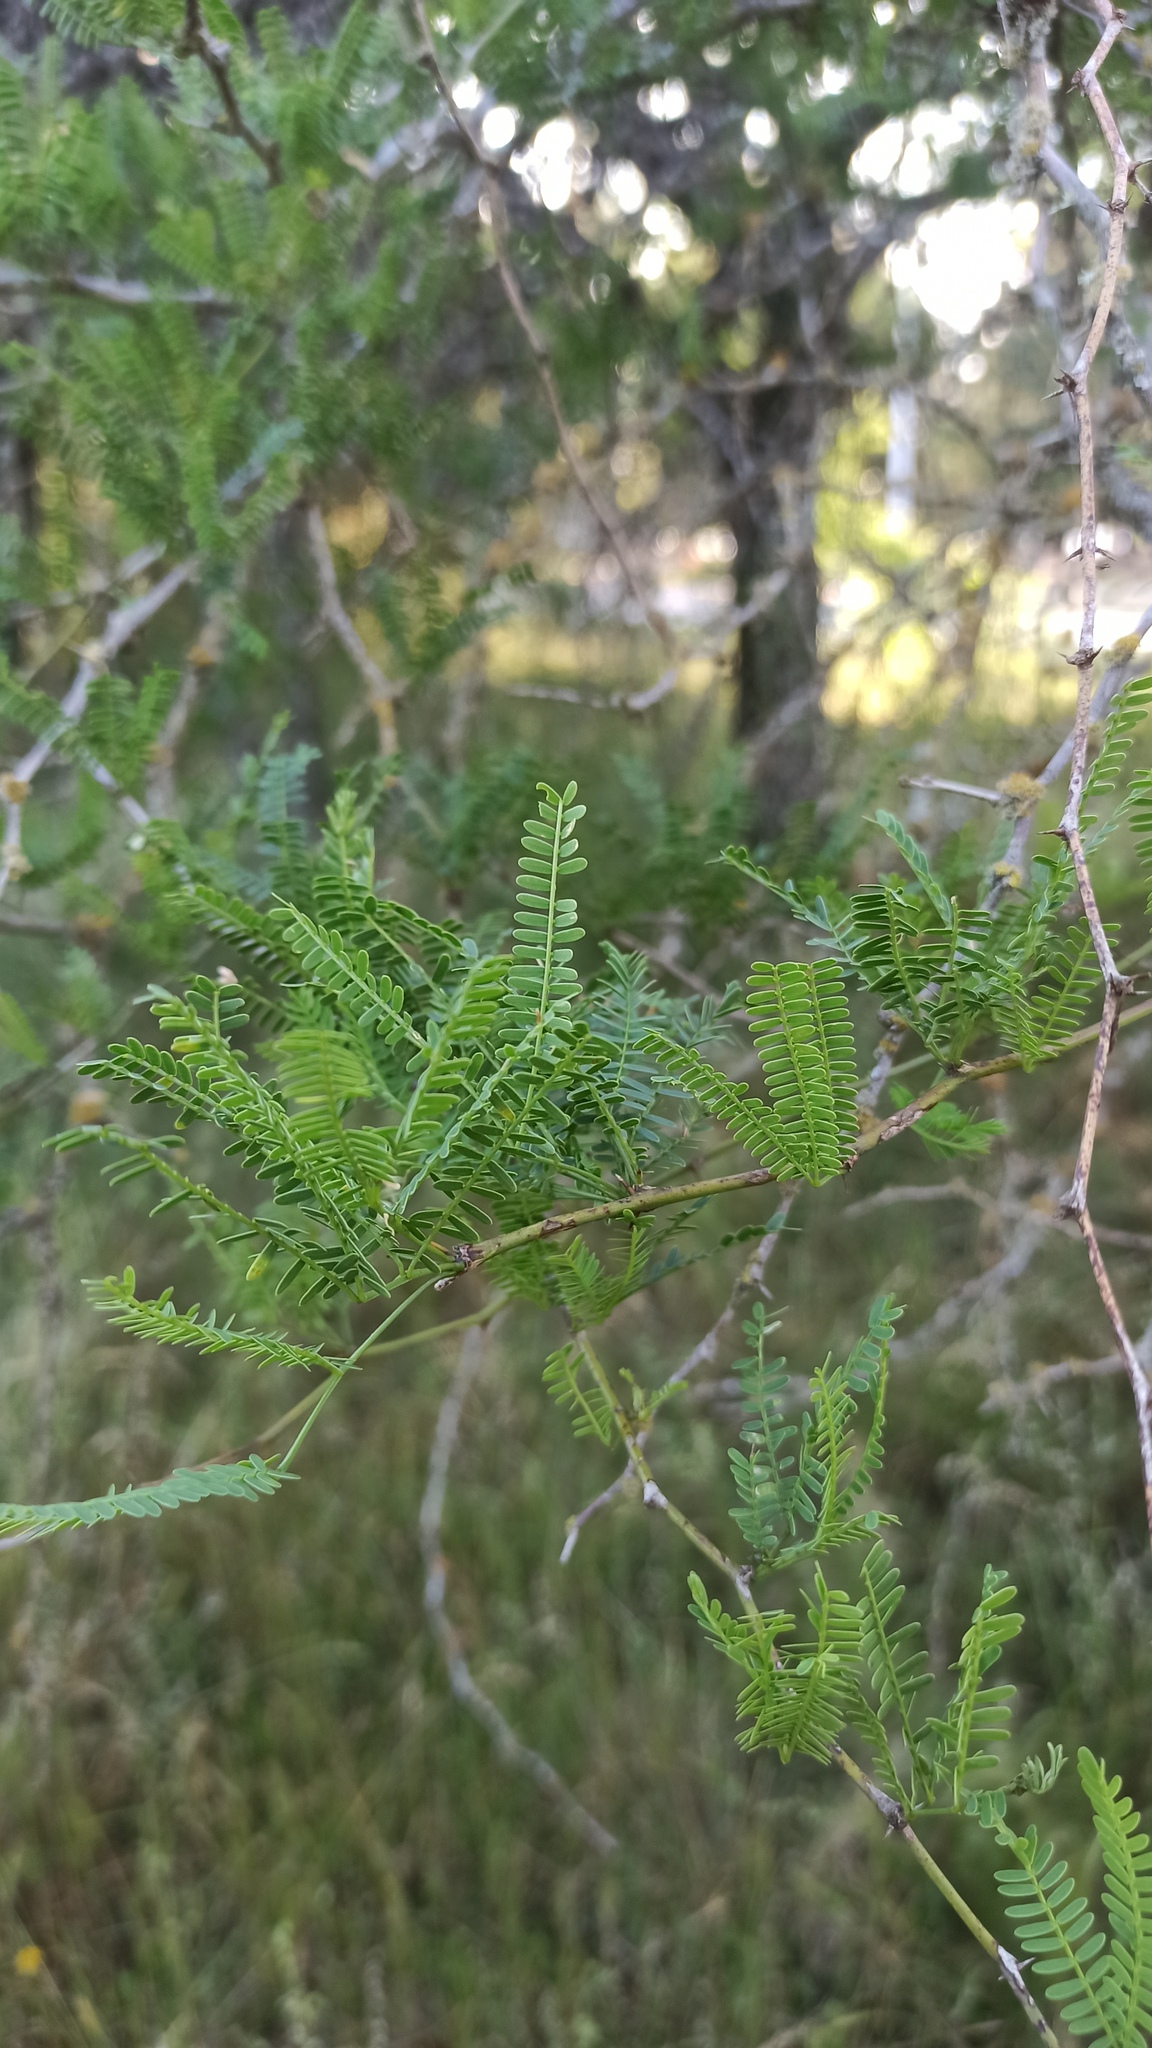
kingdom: Plantae
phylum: Tracheophyta
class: Magnoliopsida
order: Fabales
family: Fabaceae
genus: Prosopis
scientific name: Prosopis affinis
